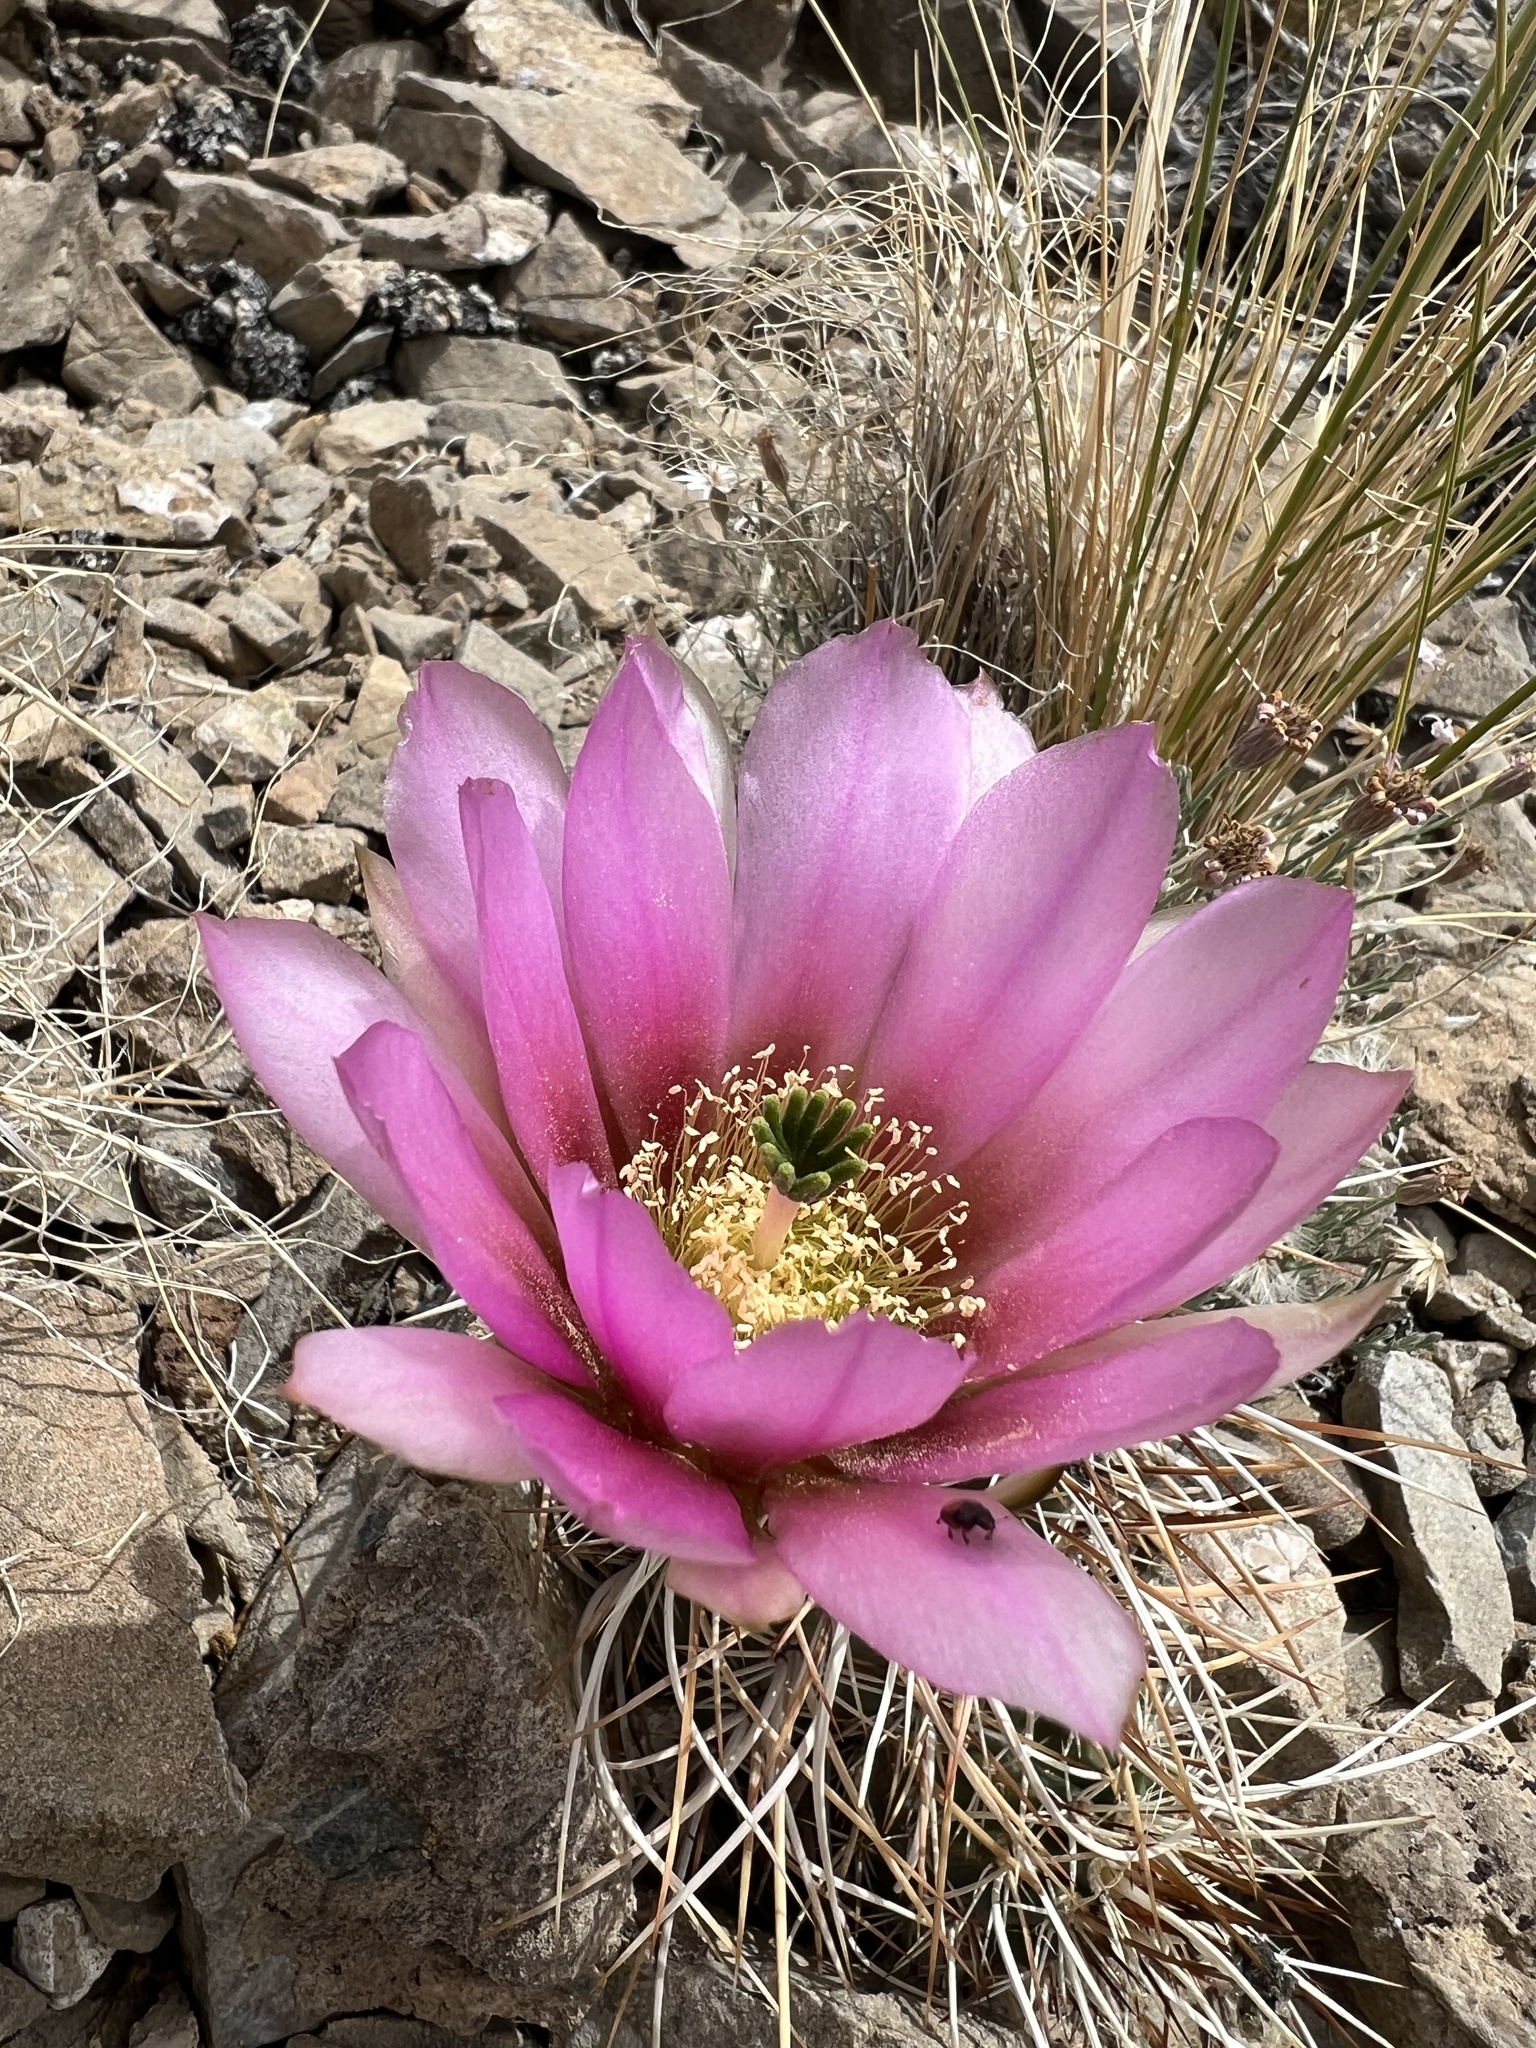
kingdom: Plantae
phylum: Tracheophyta
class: Magnoliopsida
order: Caryophyllales
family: Cactaceae
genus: Echinocereus
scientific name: Echinocereus engelmannii
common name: Engelmann's hedgehog cactus
